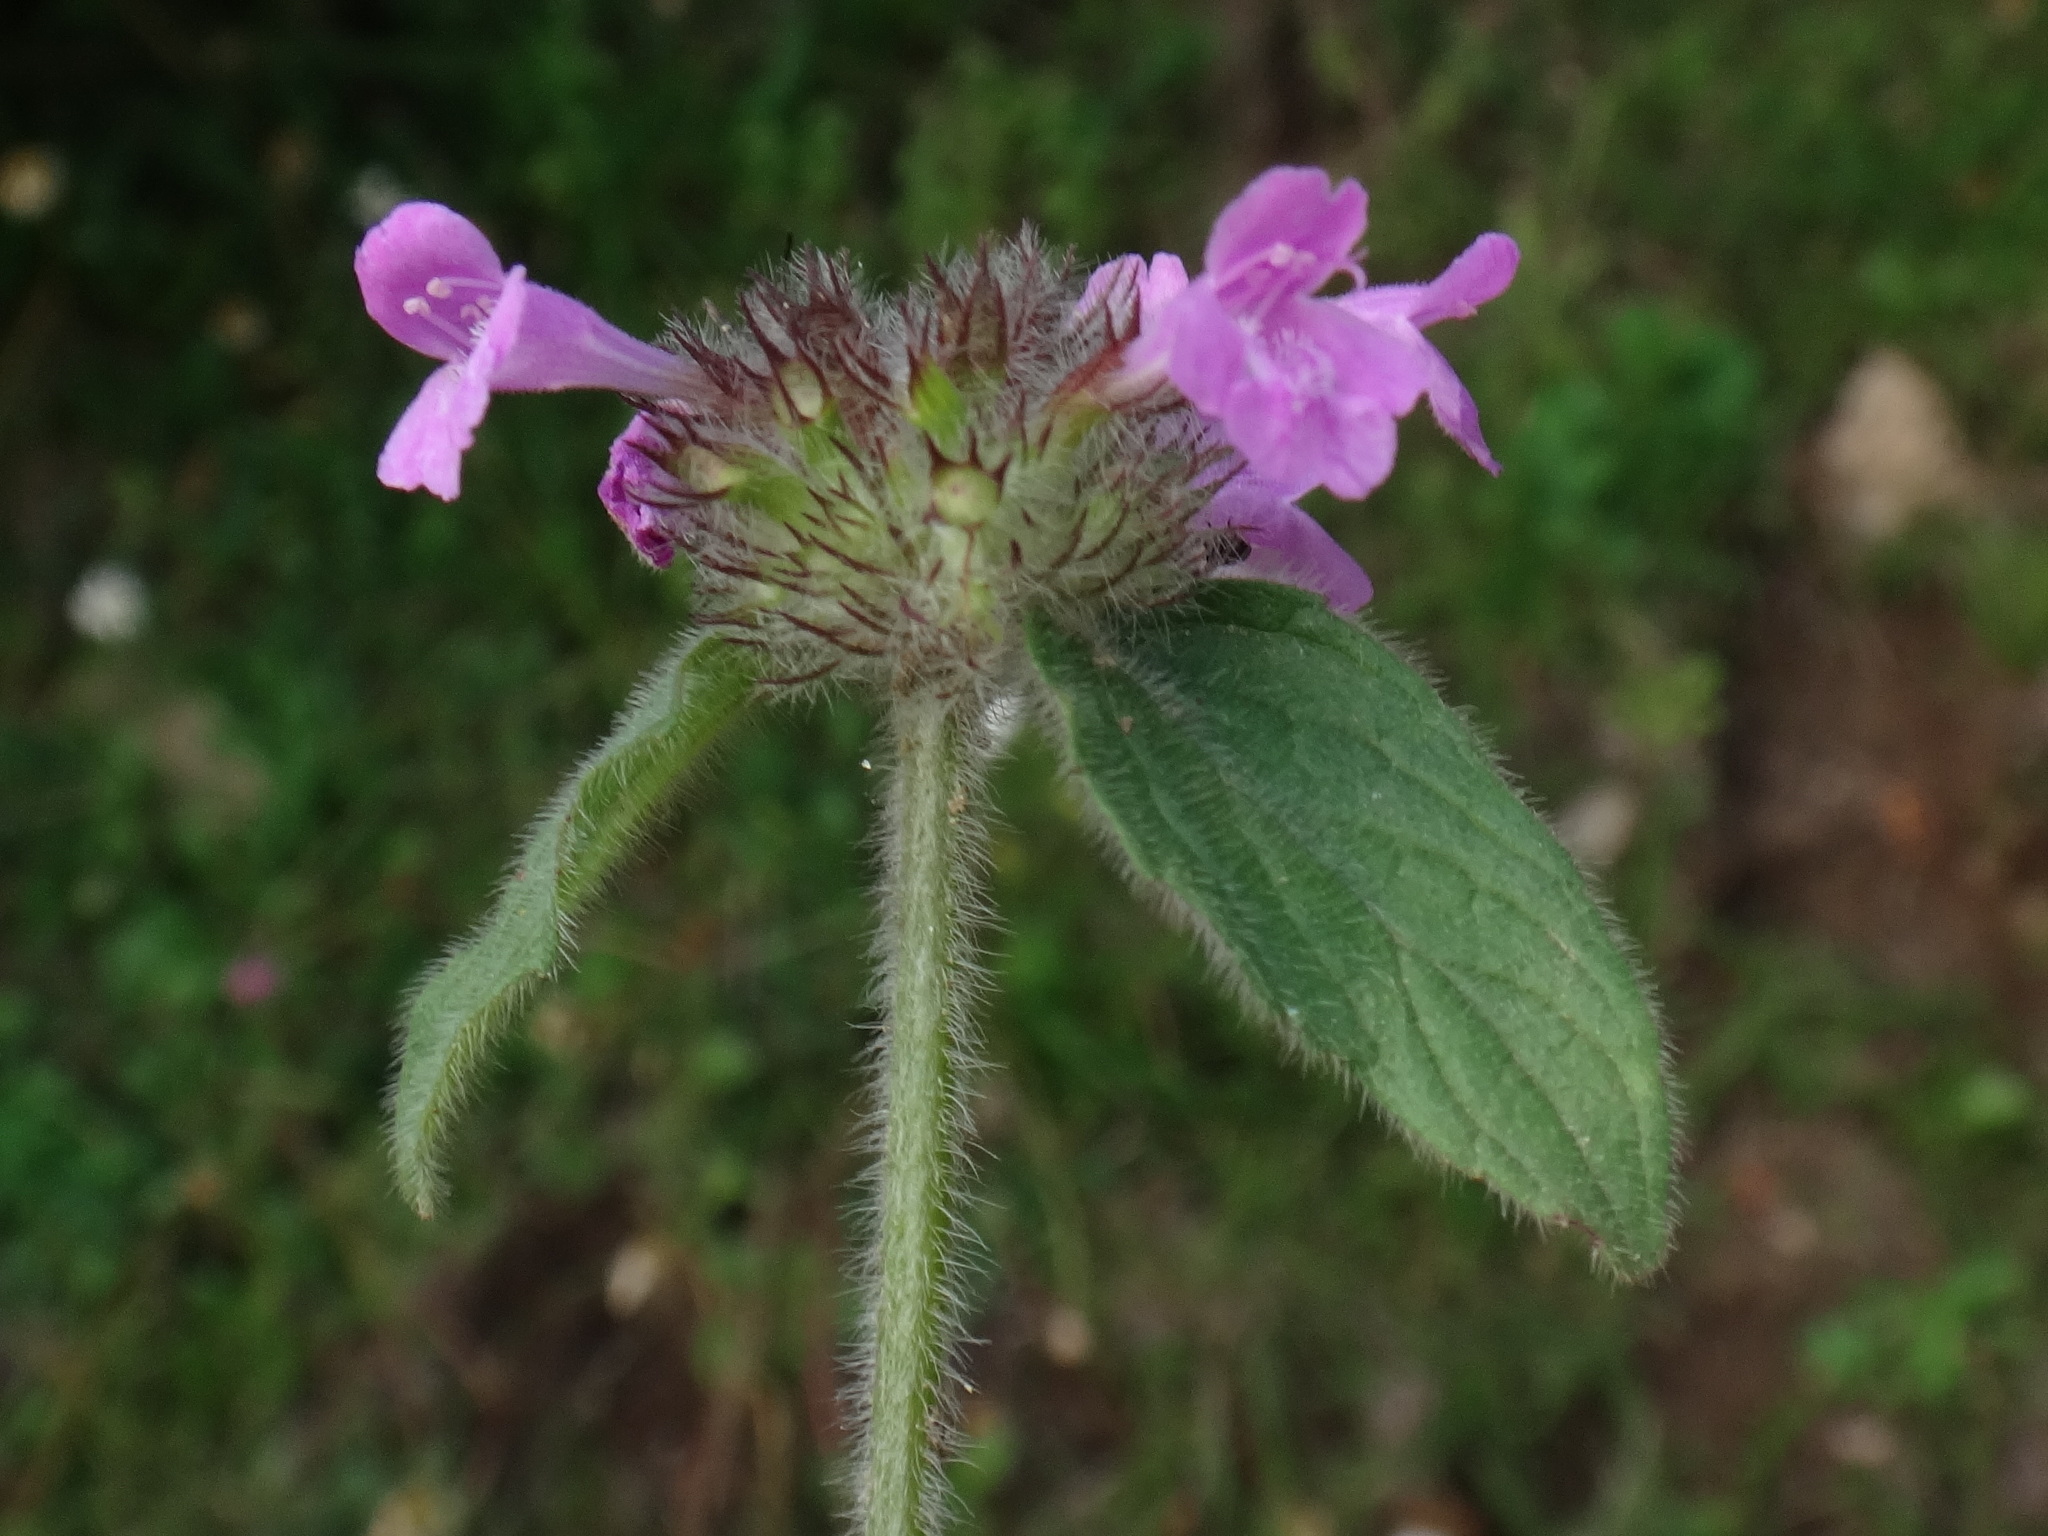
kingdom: Plantae
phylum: Tracheophyta
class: Magnoliopsida
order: Lamiales
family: Lamiaceae
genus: Clinopodium
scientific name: Clinopodium vulgare
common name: Wild basil
